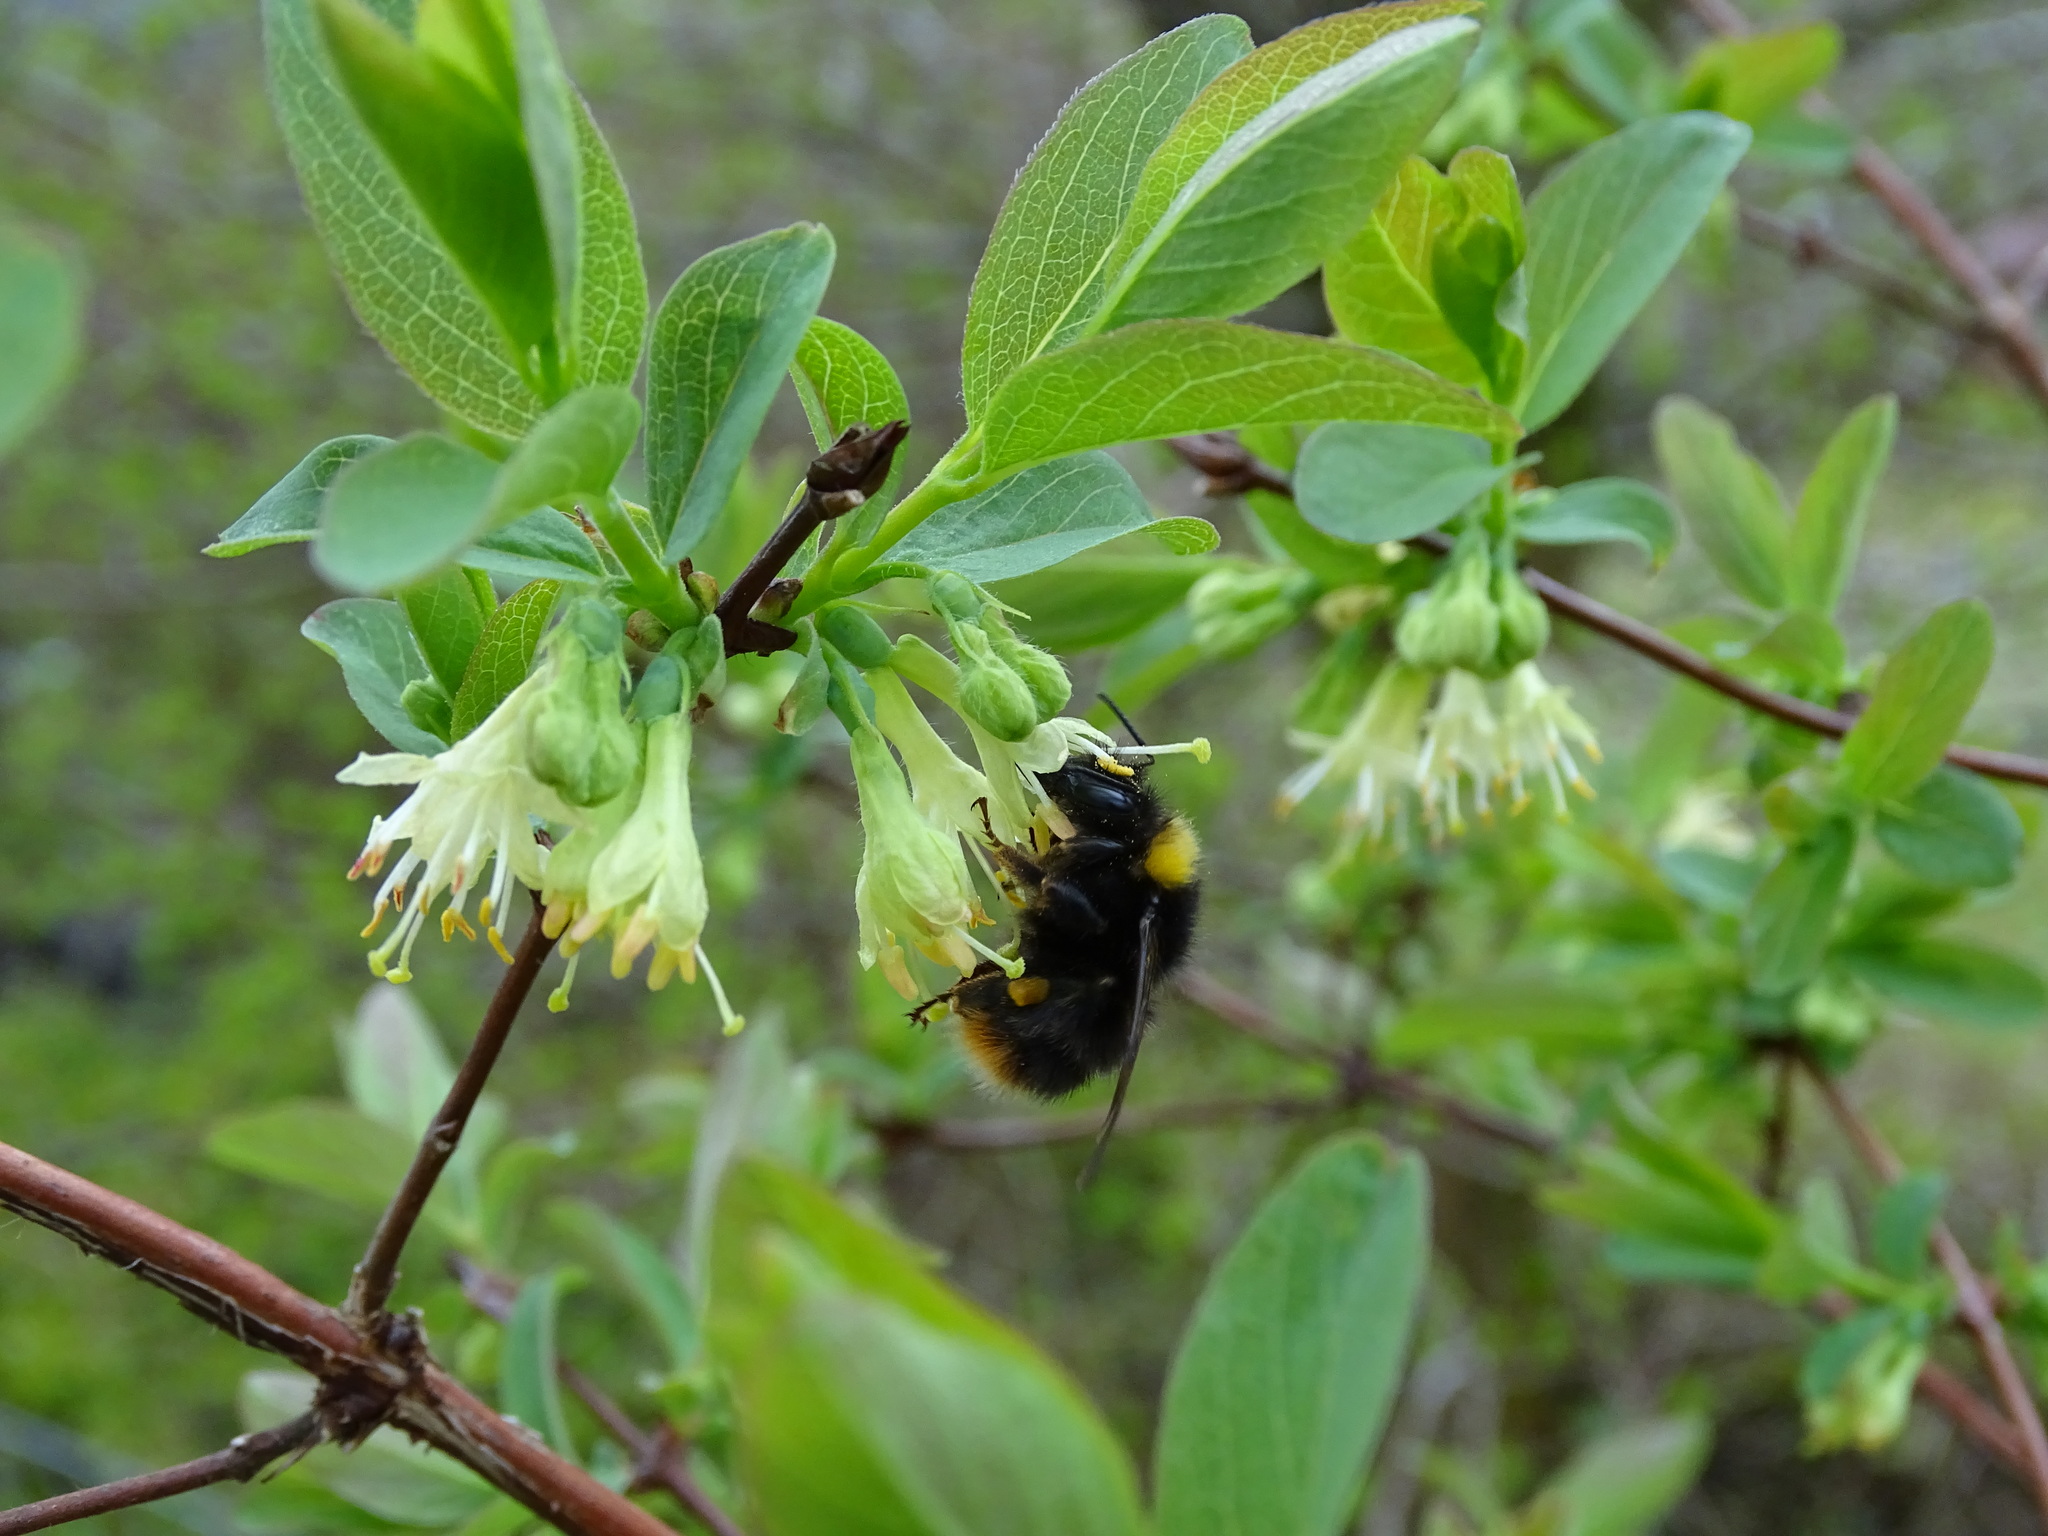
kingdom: Animalia
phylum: Arthropoda
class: Insecta
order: Hymenoptera
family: Apidae
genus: Bombus
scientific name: Bombus pratorum
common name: Early humble-bee
